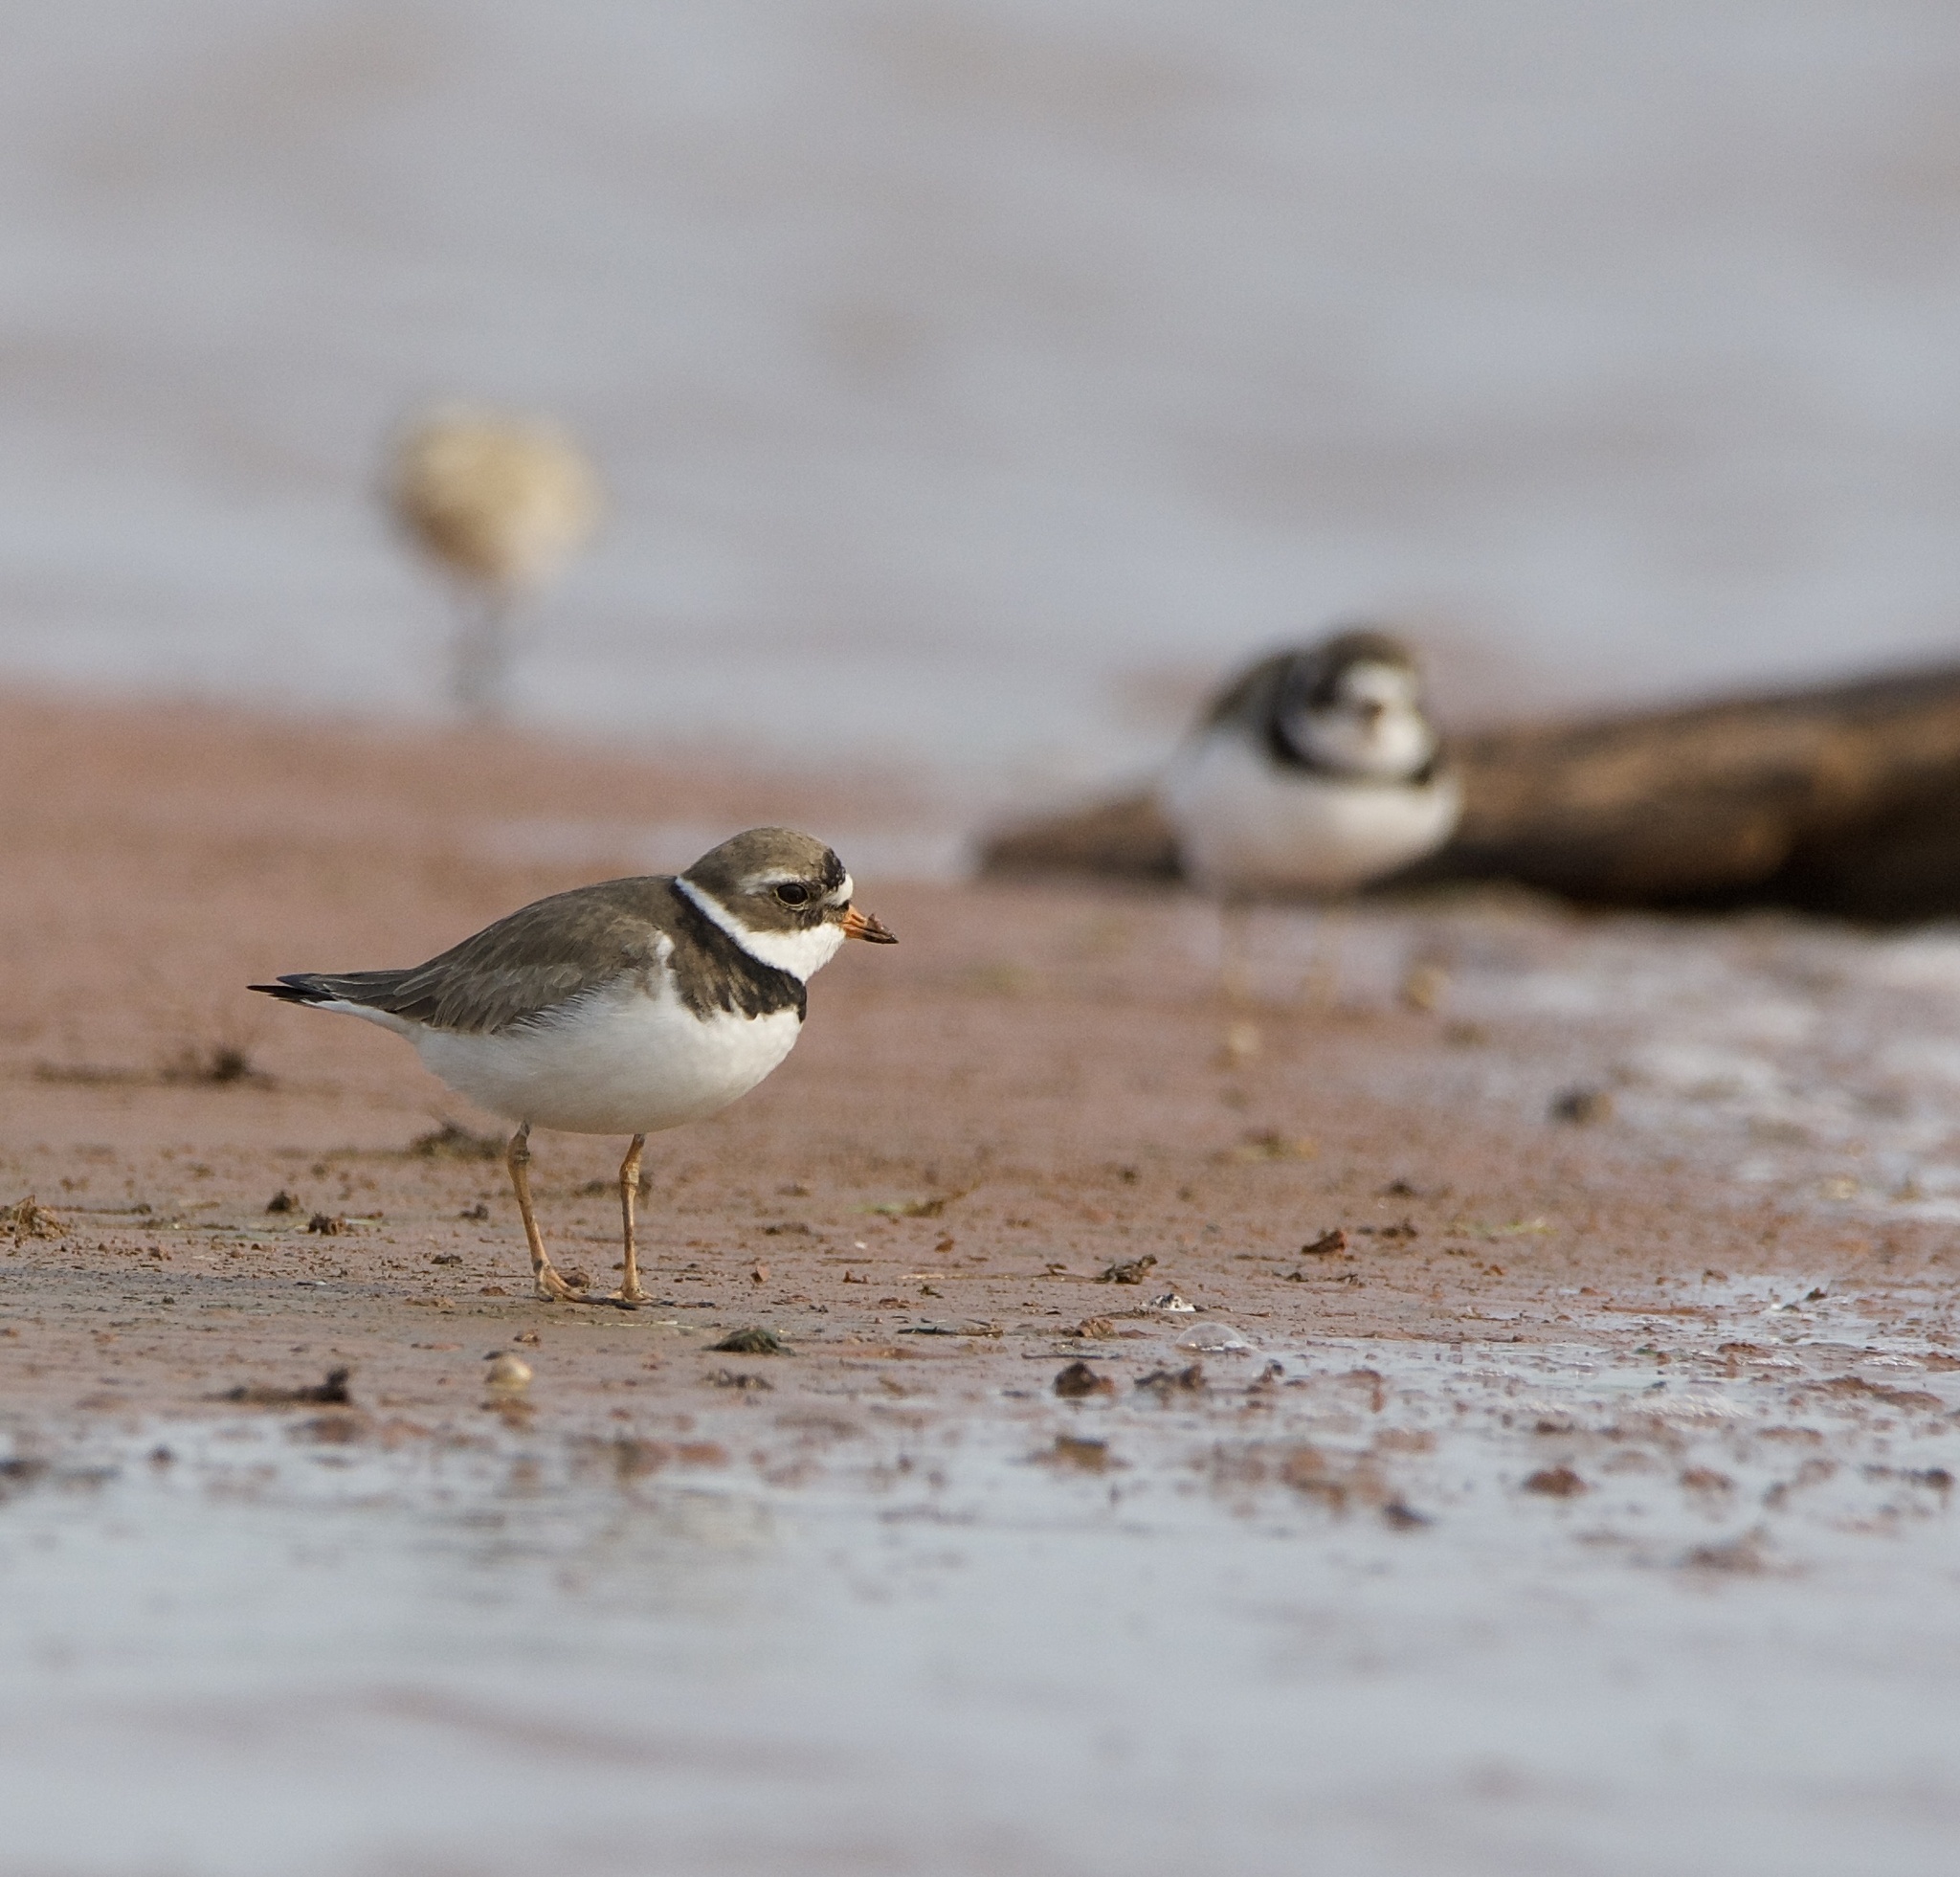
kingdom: Animalia
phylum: Chordata
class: Aves
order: Charadriiformes
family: Charadriidae
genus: Charadrius
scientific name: Charadrius semipalmatus
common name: Semipalmated plover
